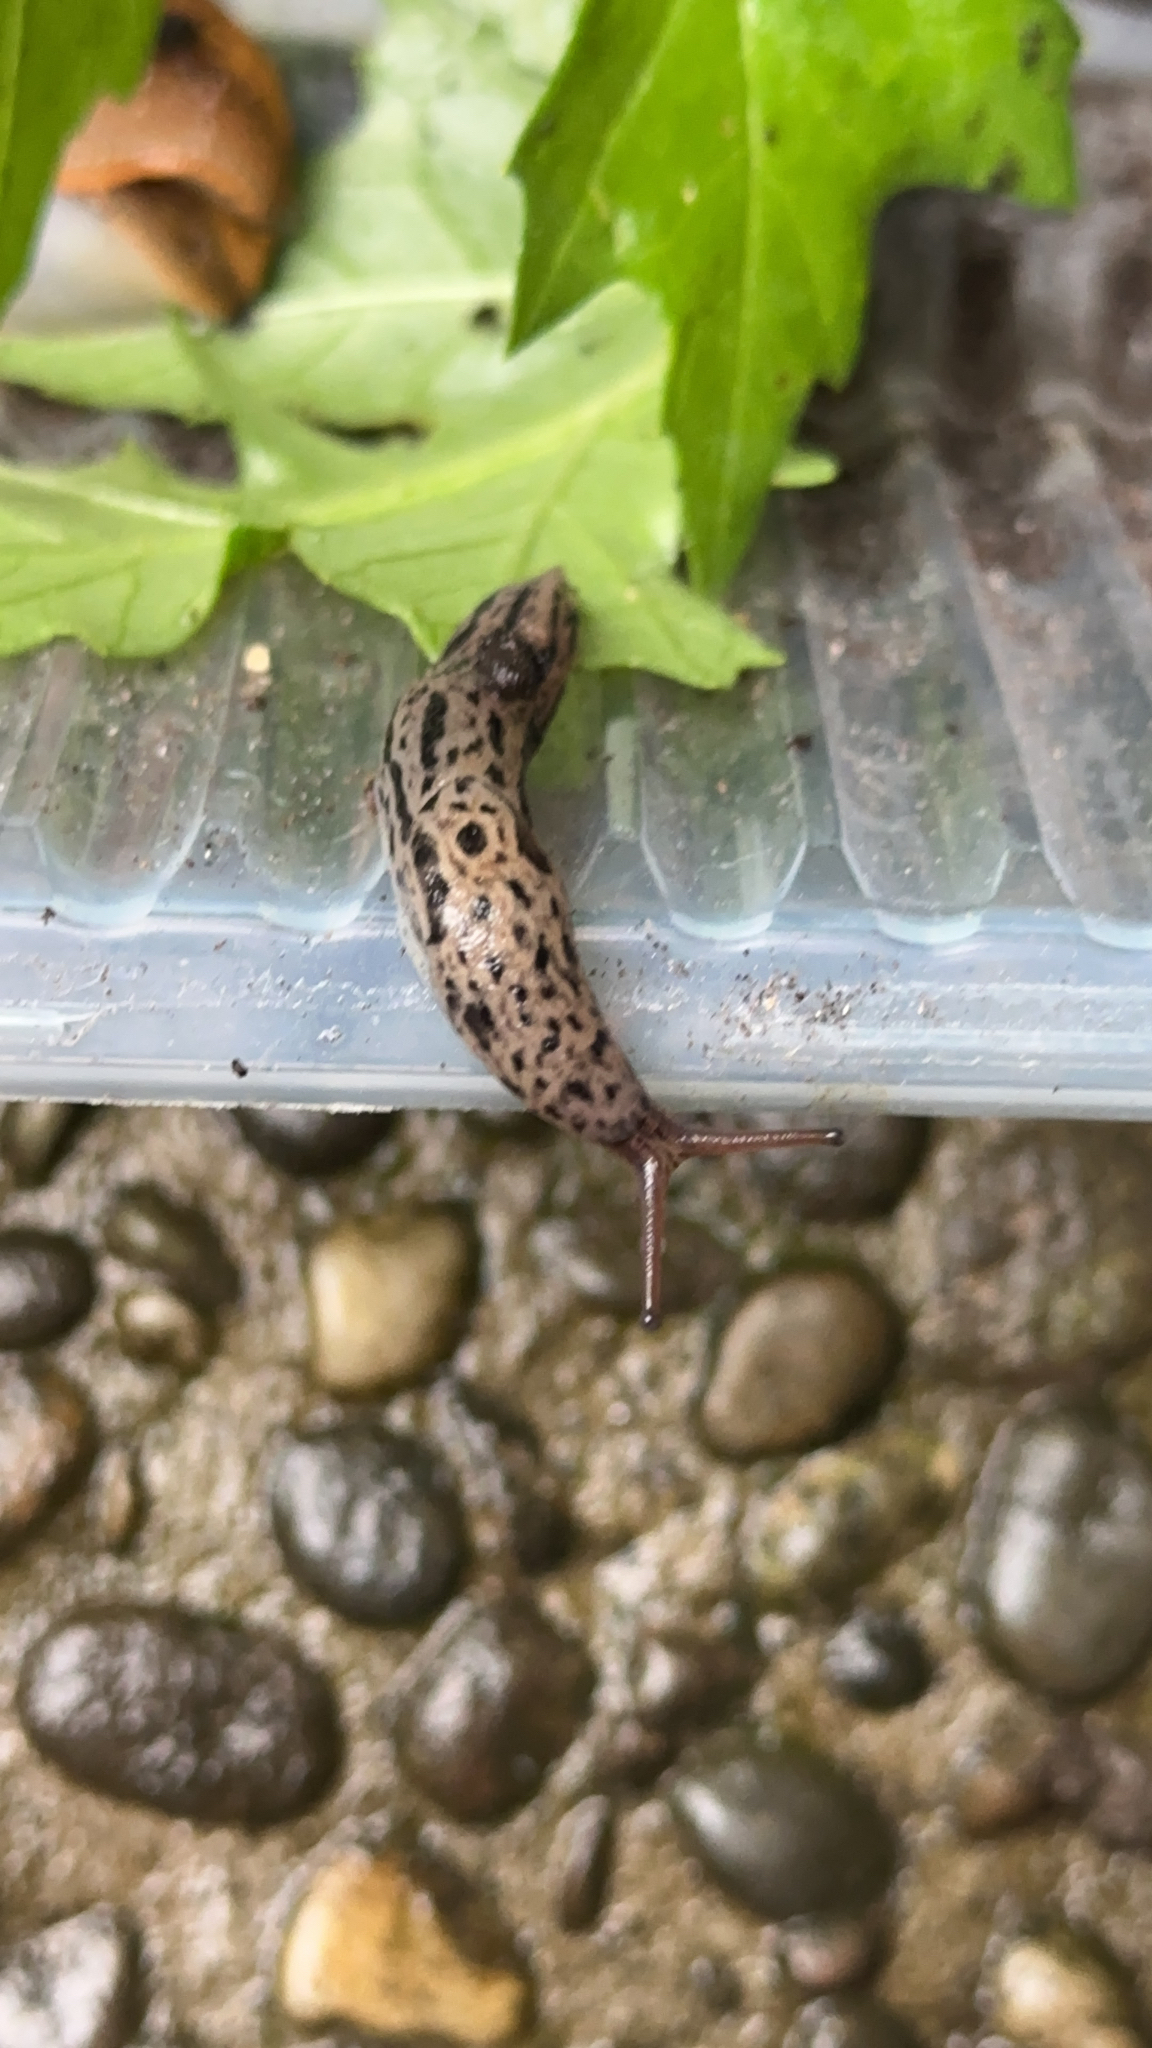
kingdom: Animalia
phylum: Mollusca
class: Gastropoda
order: Stylommatophora
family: Limacidae
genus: Limax
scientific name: Limax maximus
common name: Great grey slug
